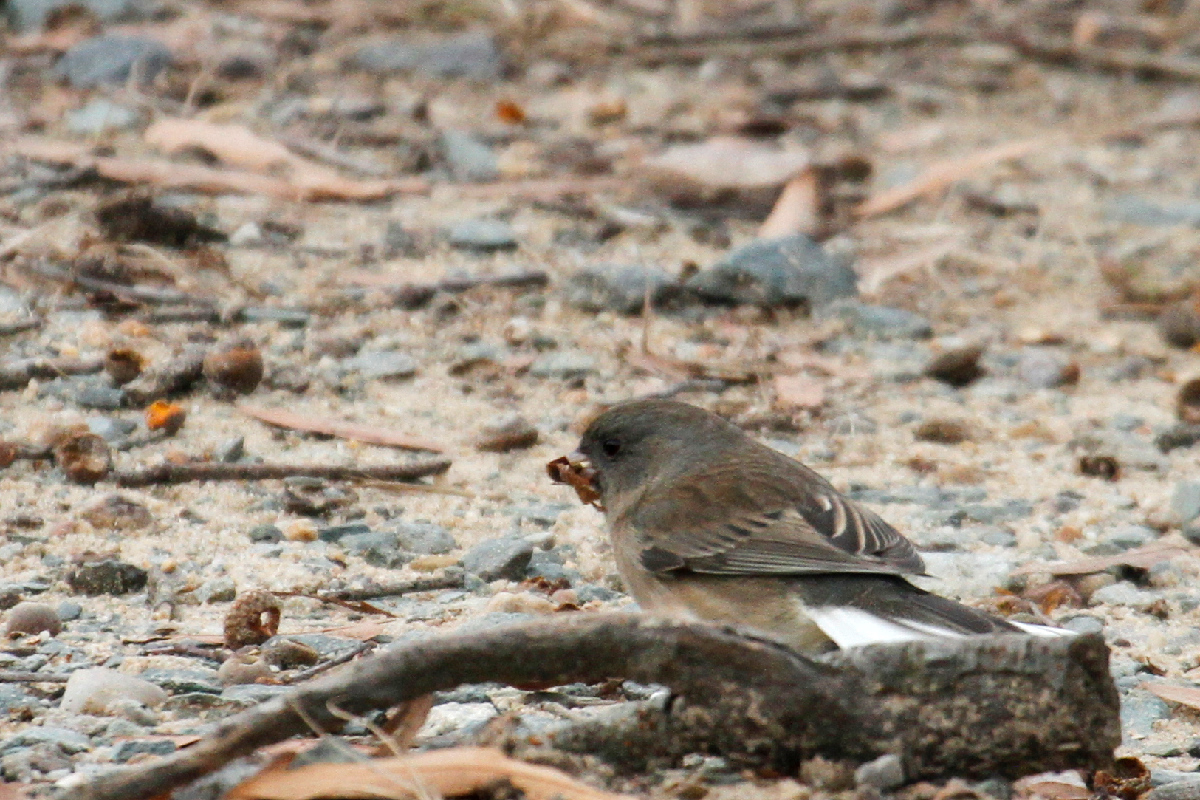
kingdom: Animalia
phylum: Chordata
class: Aves
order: Passeriformes
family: Passerellidae
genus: Junco
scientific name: Junco hyemalis
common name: Dark-eyed junco
